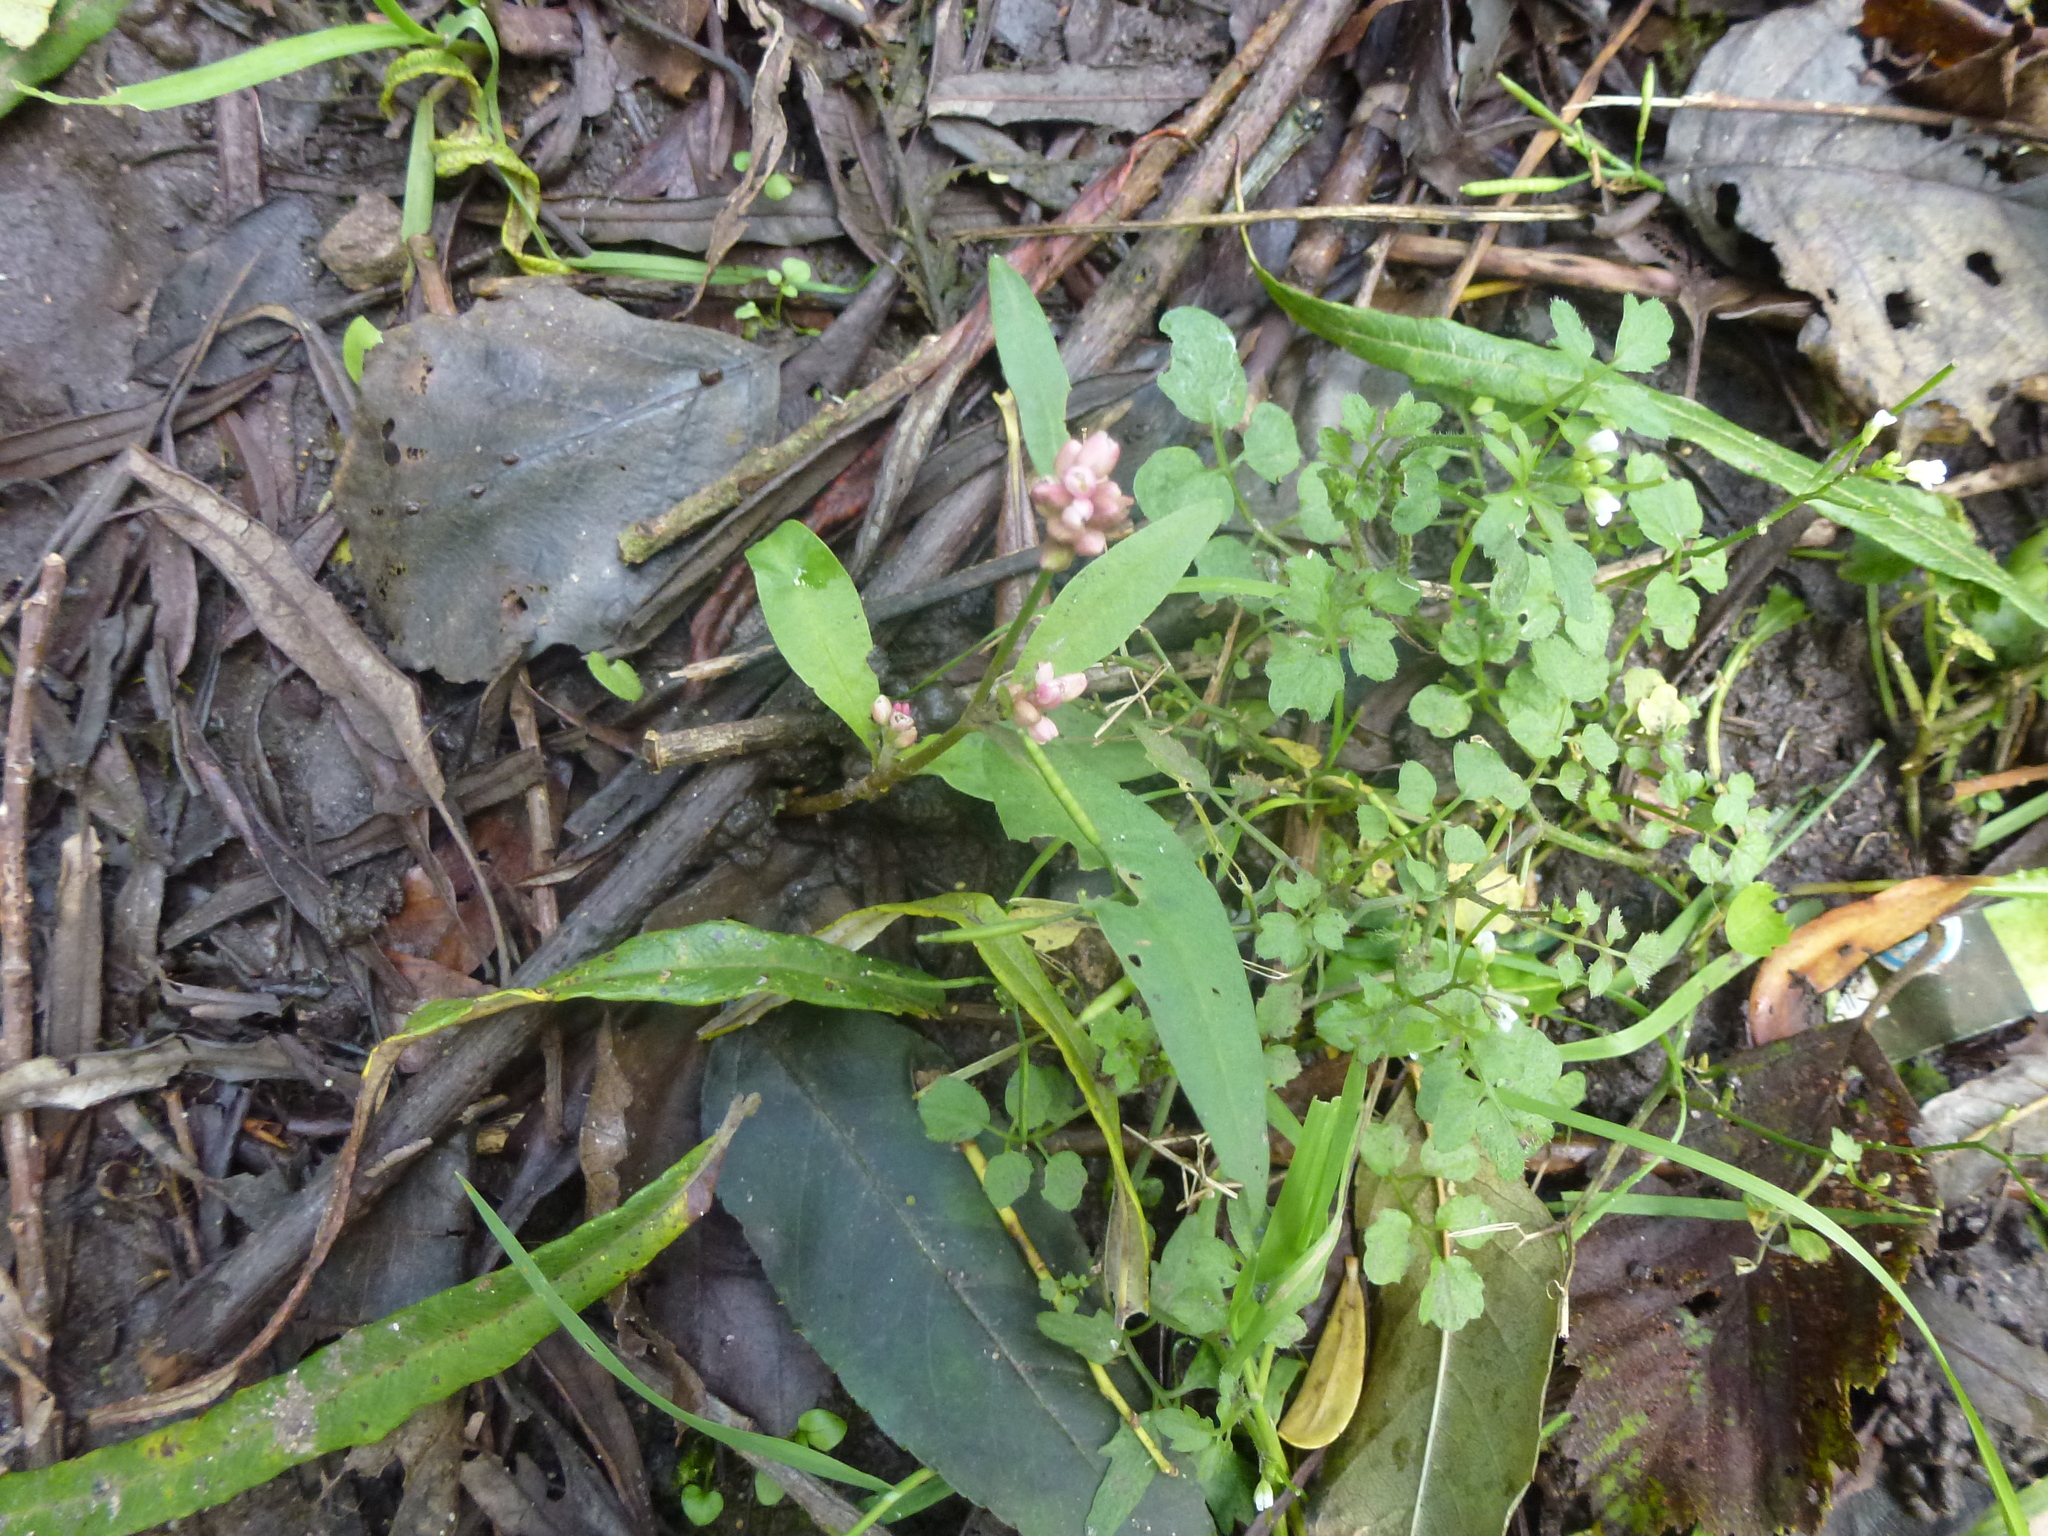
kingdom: Plantae
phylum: Tracheophyta
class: Magnoliopsida
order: Brassicales
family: Brassicaceae
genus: Cardamine
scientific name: Cardamine flexuosa
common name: Woodland bittercress
